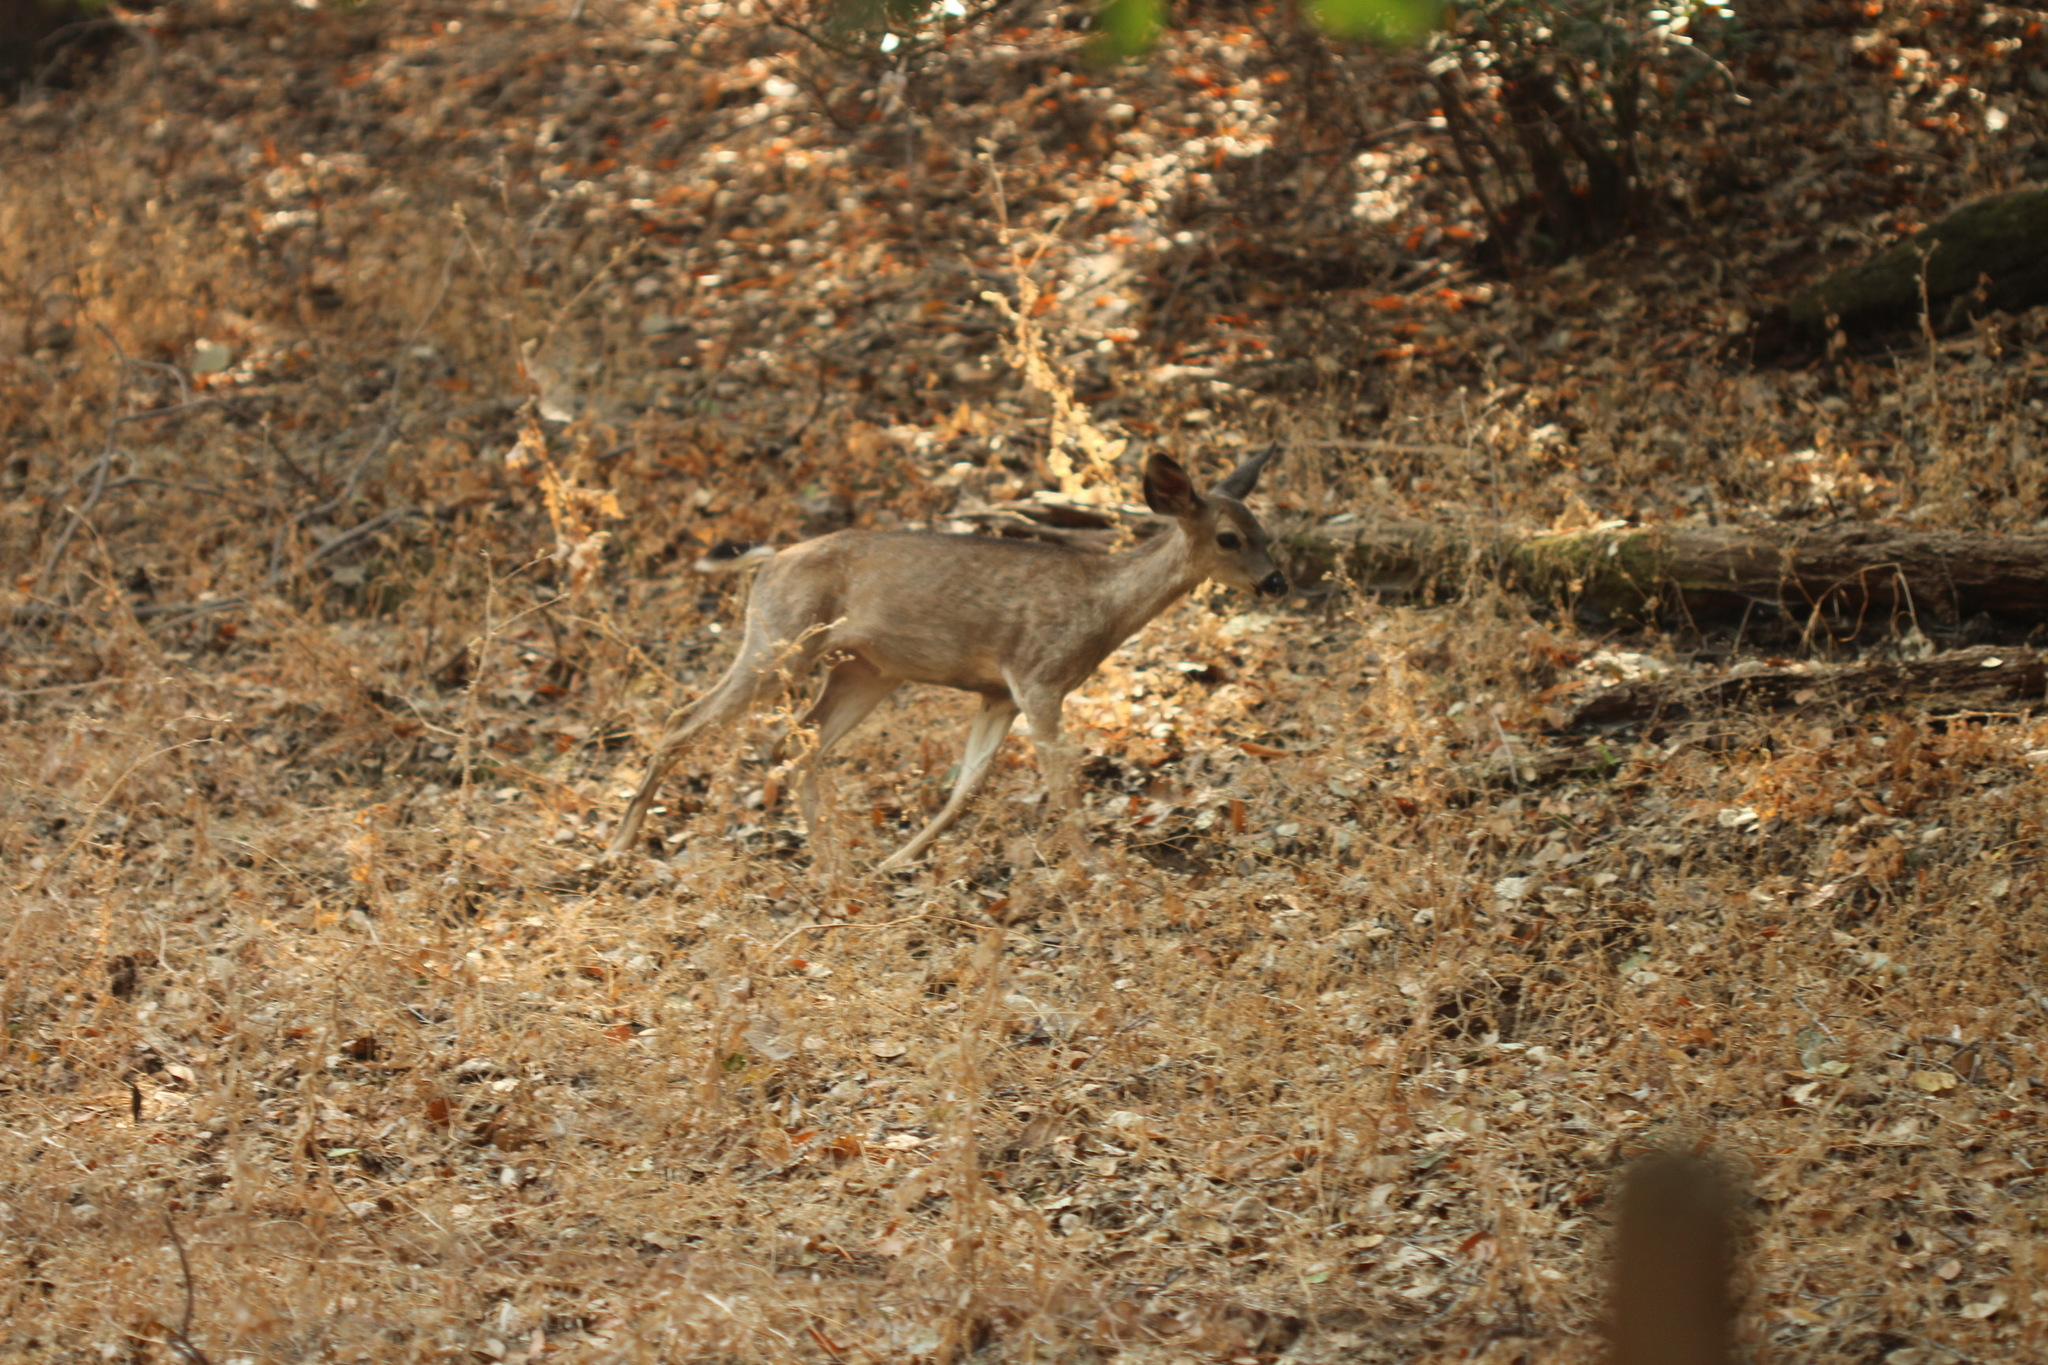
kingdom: Animalia
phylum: Chordata
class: Mammalia
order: Artiodactyla
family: Cervidae
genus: Odocoileus
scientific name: Odocoileus hemionus
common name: Mule deer
